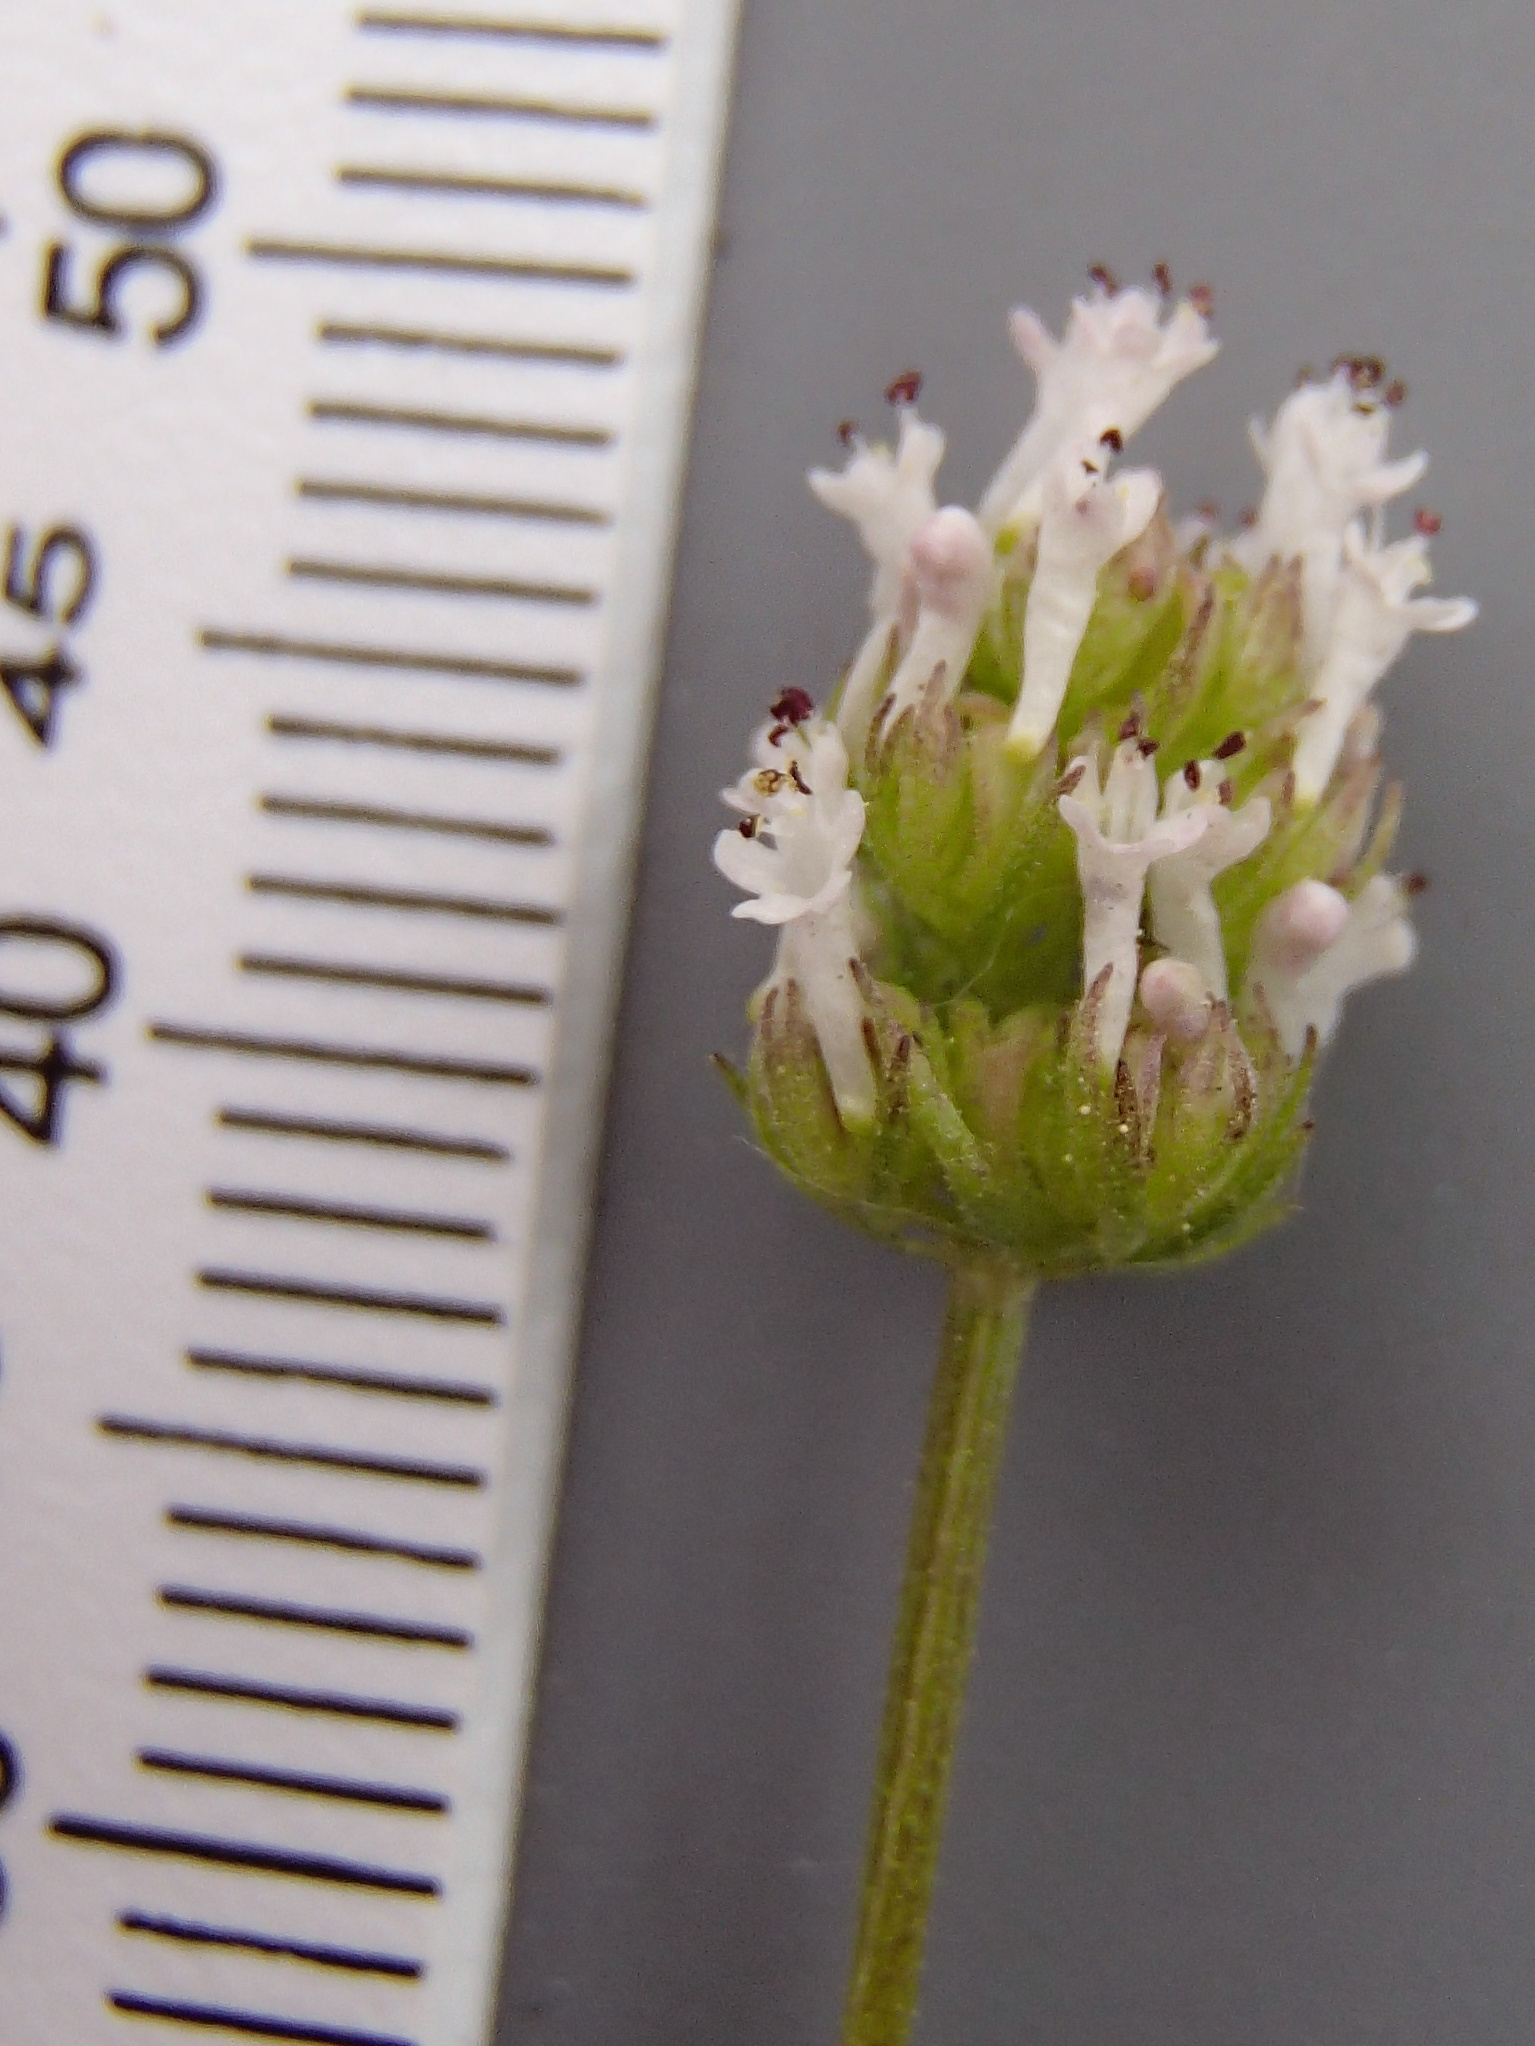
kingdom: Plantae
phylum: Tracheophyta
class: Magnoliopsida
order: Dipsacales
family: Caprifoliaceae
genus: Plectritis
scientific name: Plectritis macroptera
